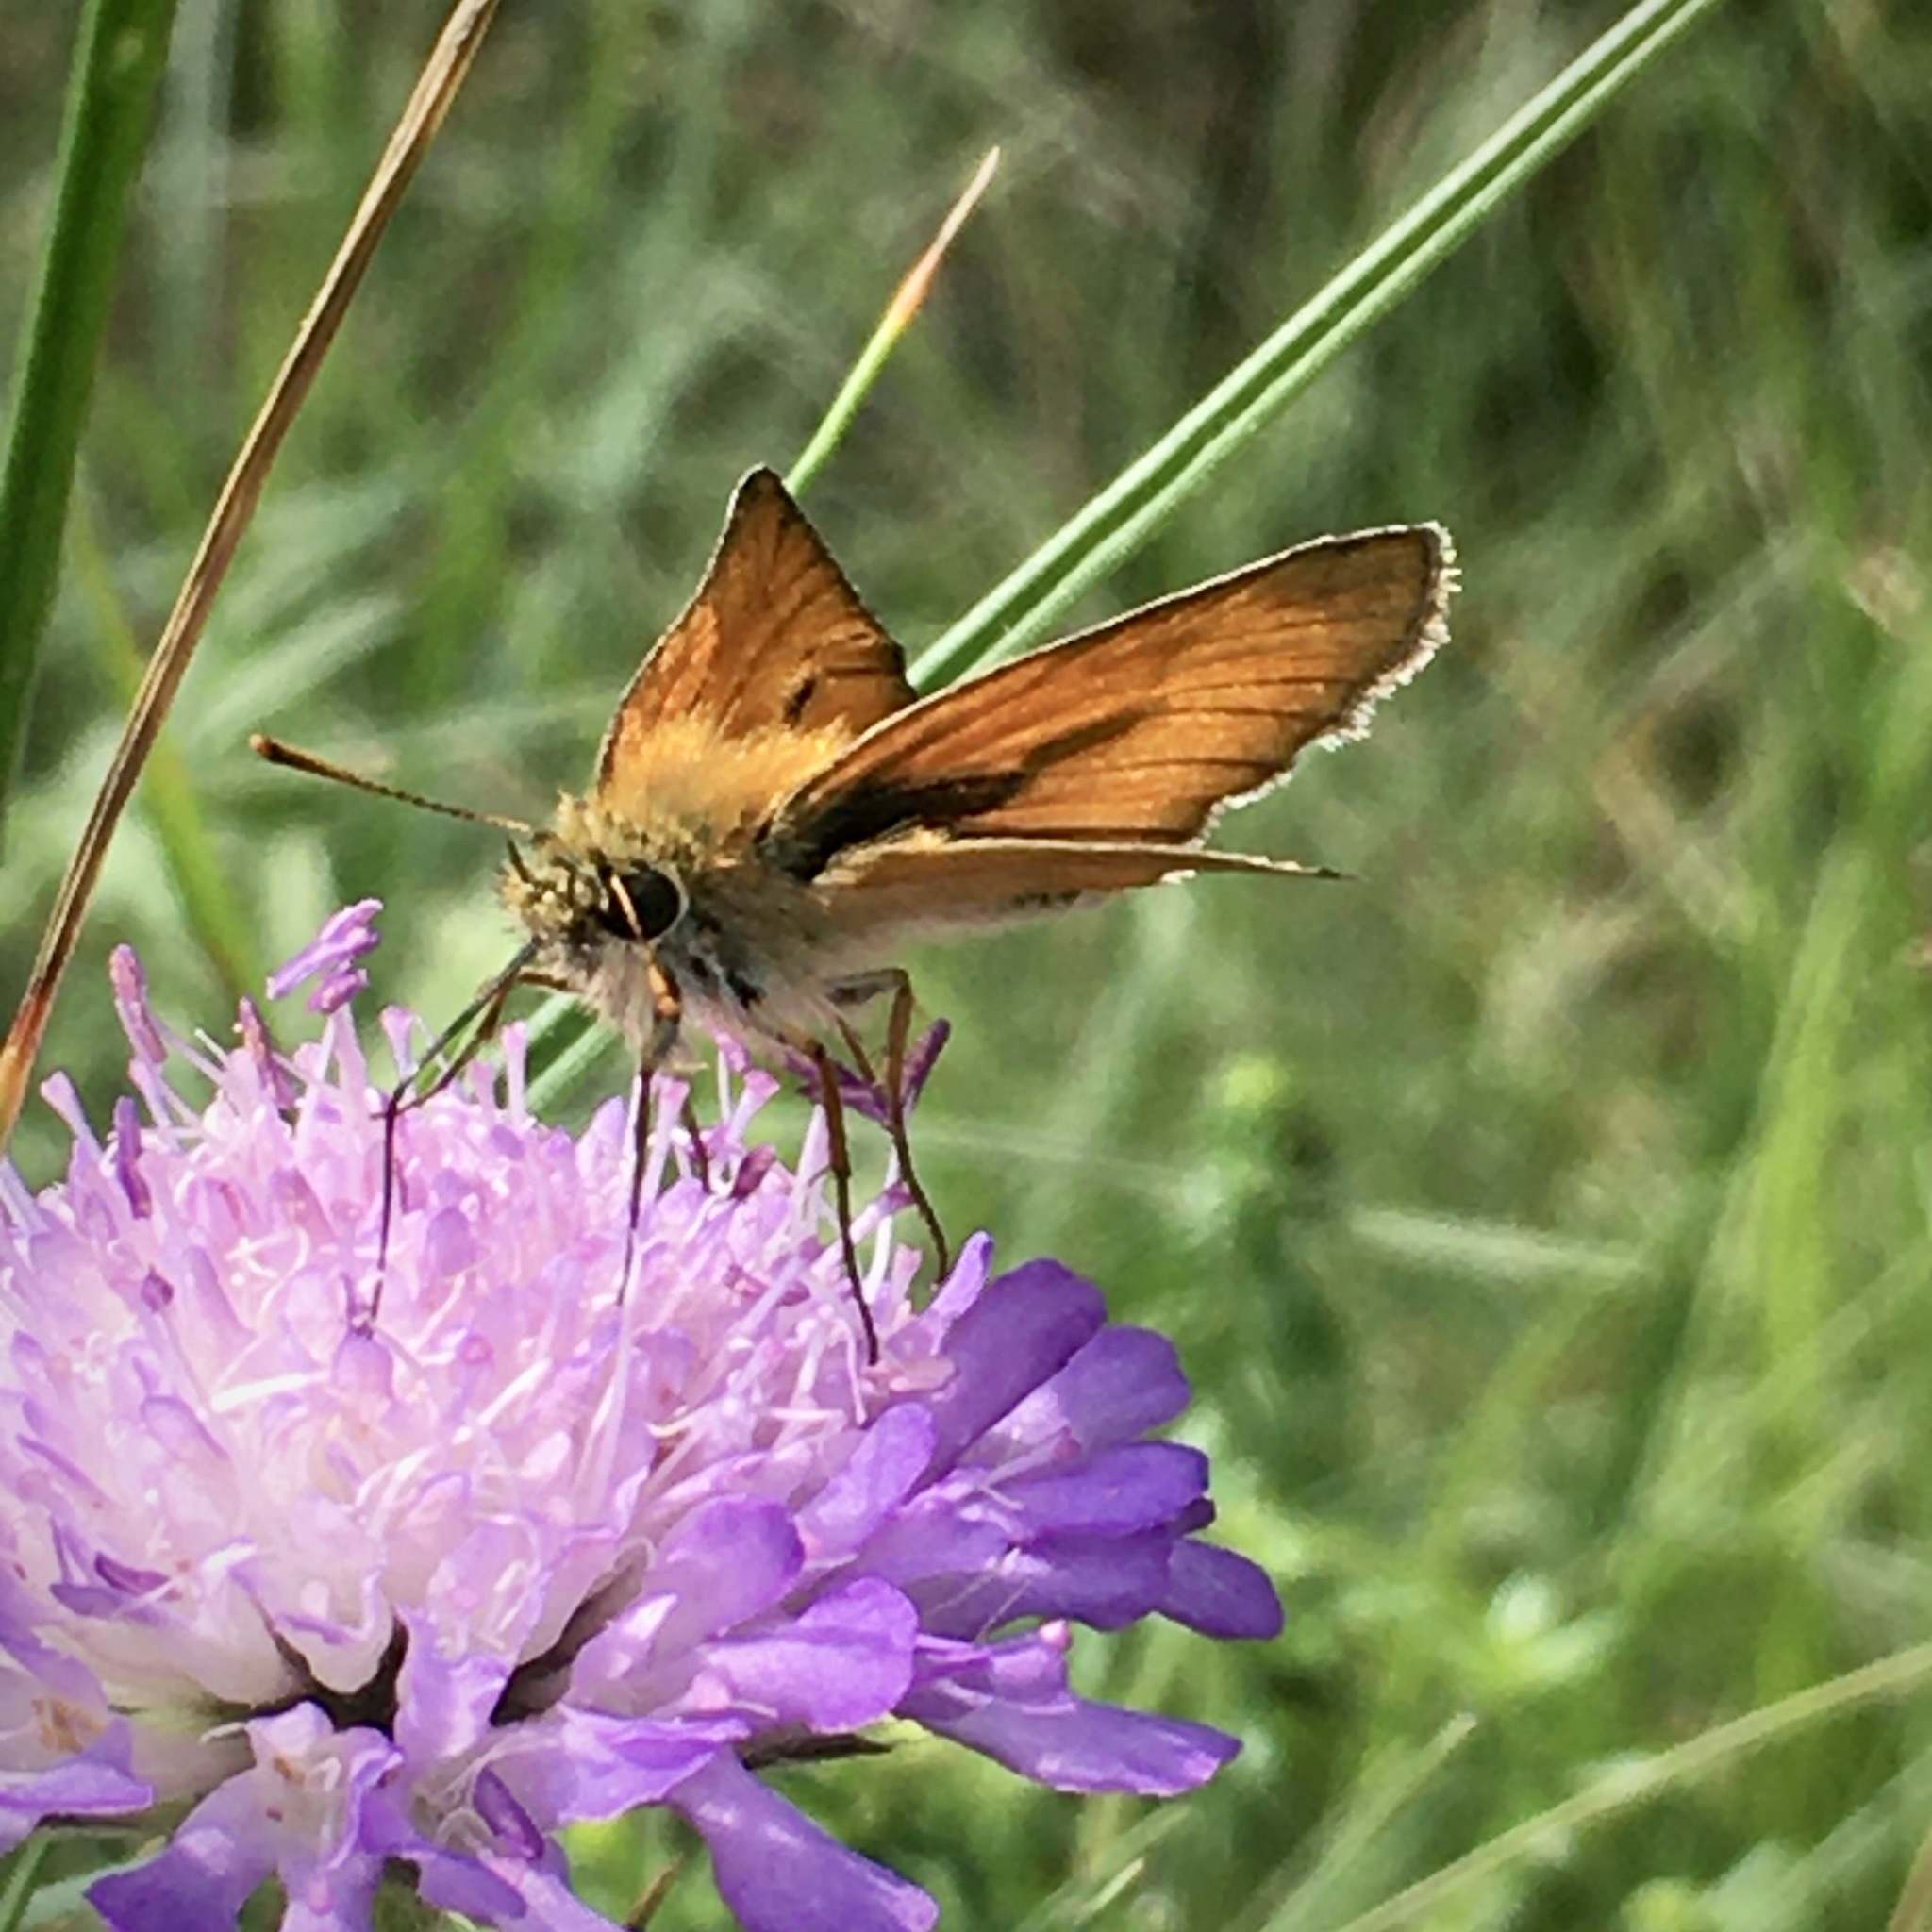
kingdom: Animalia
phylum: Arthropoda
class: Insecta
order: Lepidoptera
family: Hesperiidae
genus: Thymelicus
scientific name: Thymelicus sylvestris
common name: Small skipper
